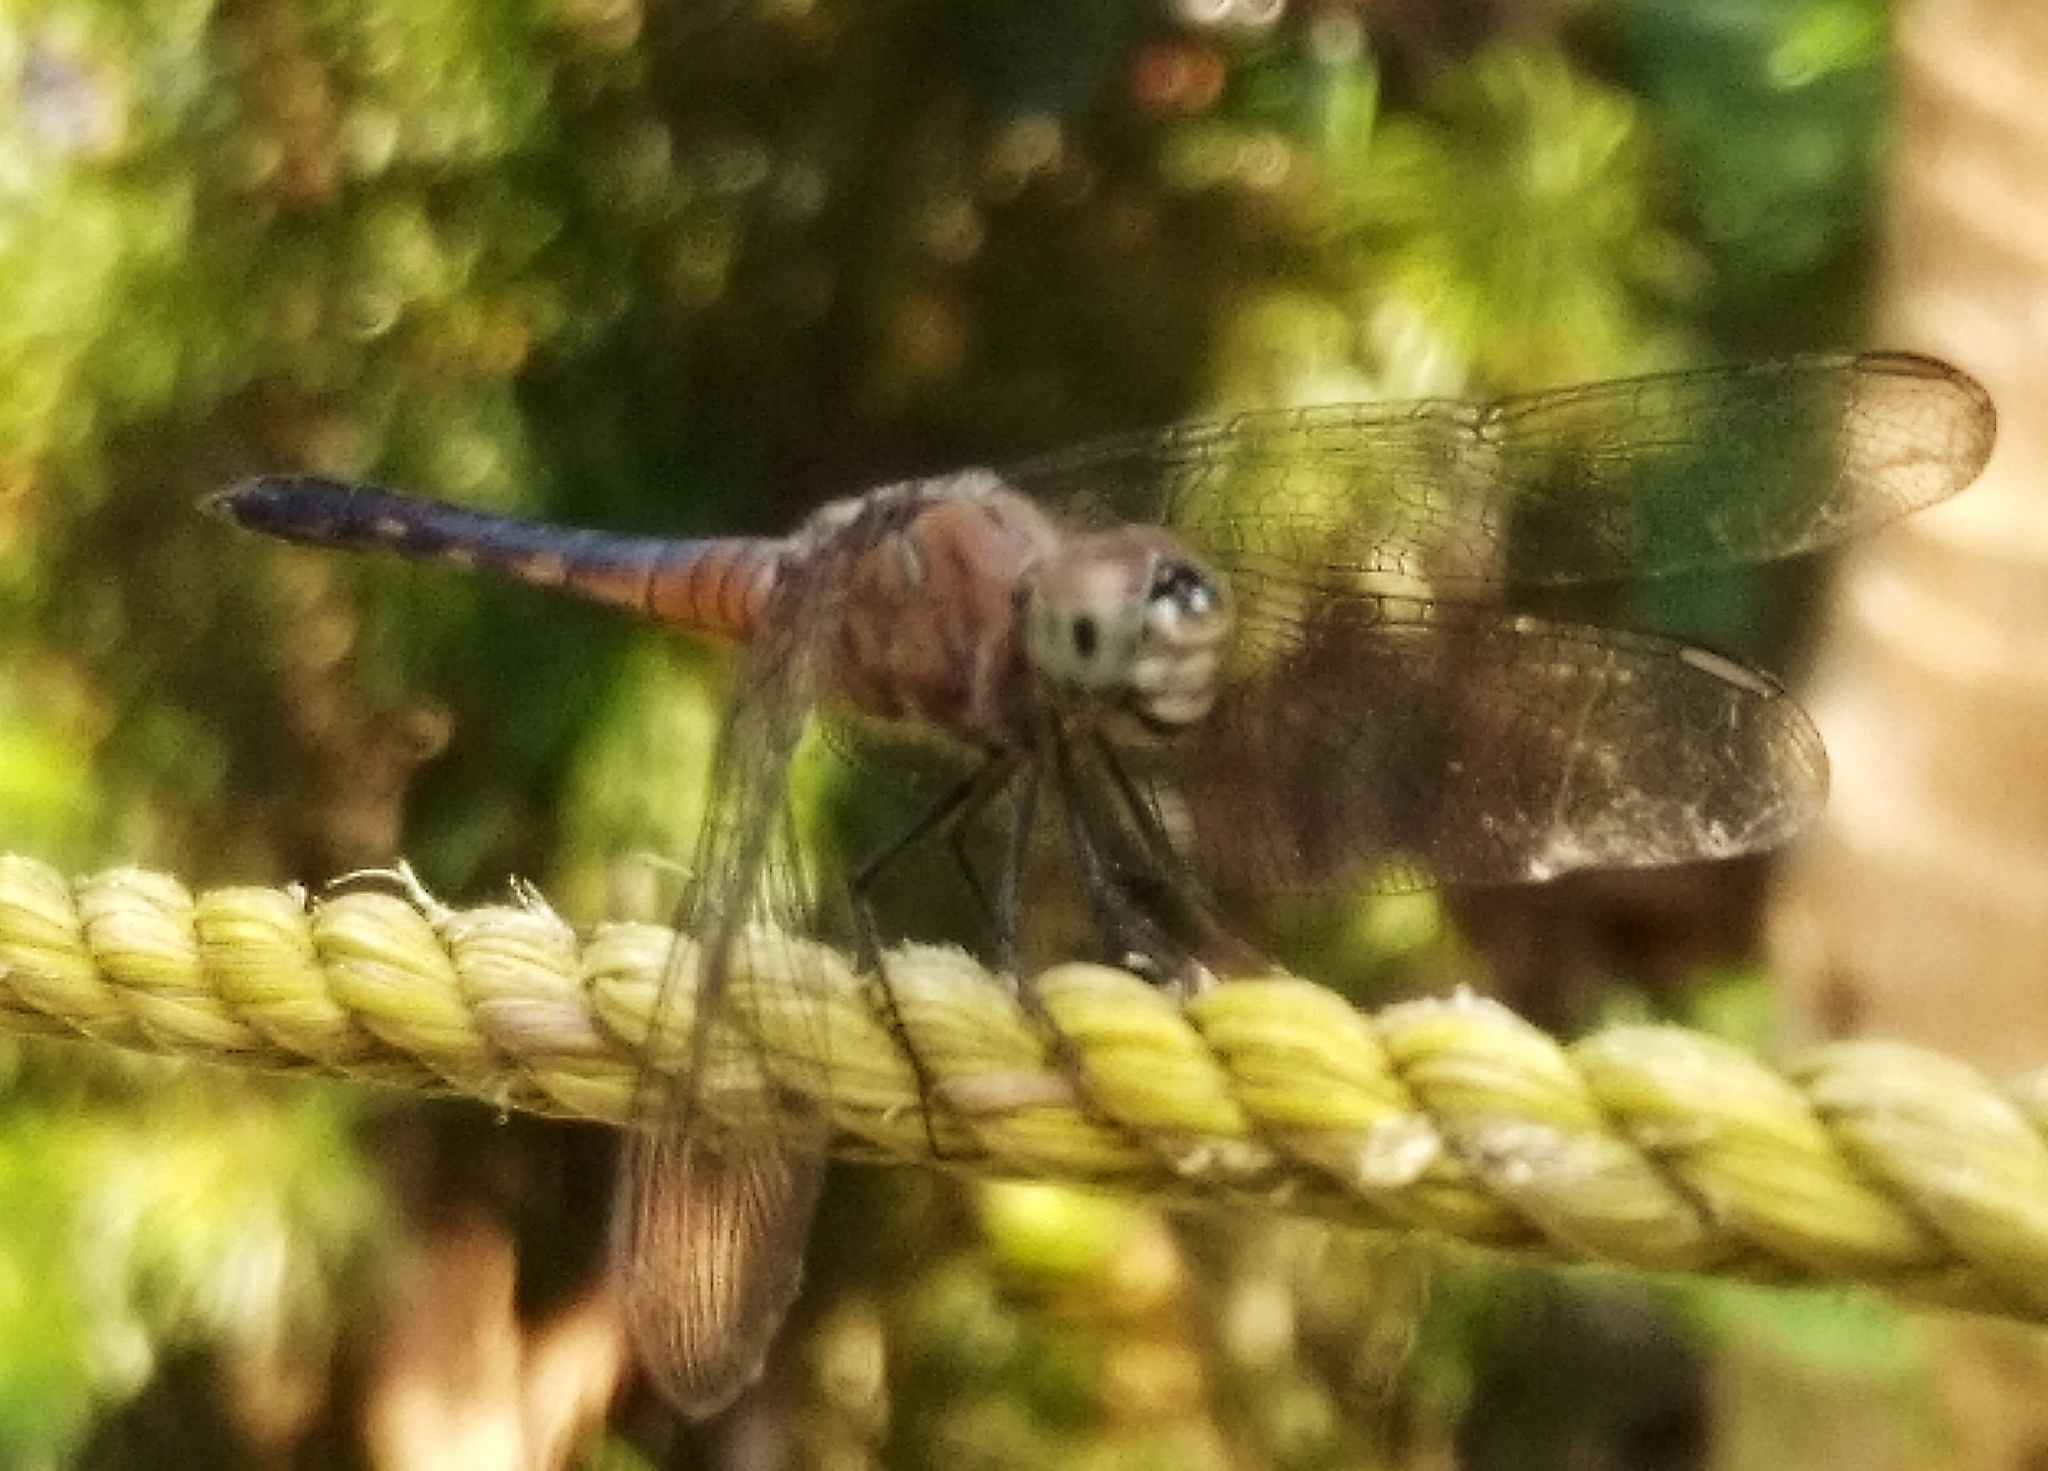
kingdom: Animalia
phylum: Arthropoda
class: Insecta
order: Odonata
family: Libellulidae
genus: Brachydiplax
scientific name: Brachydiplax chalybea
